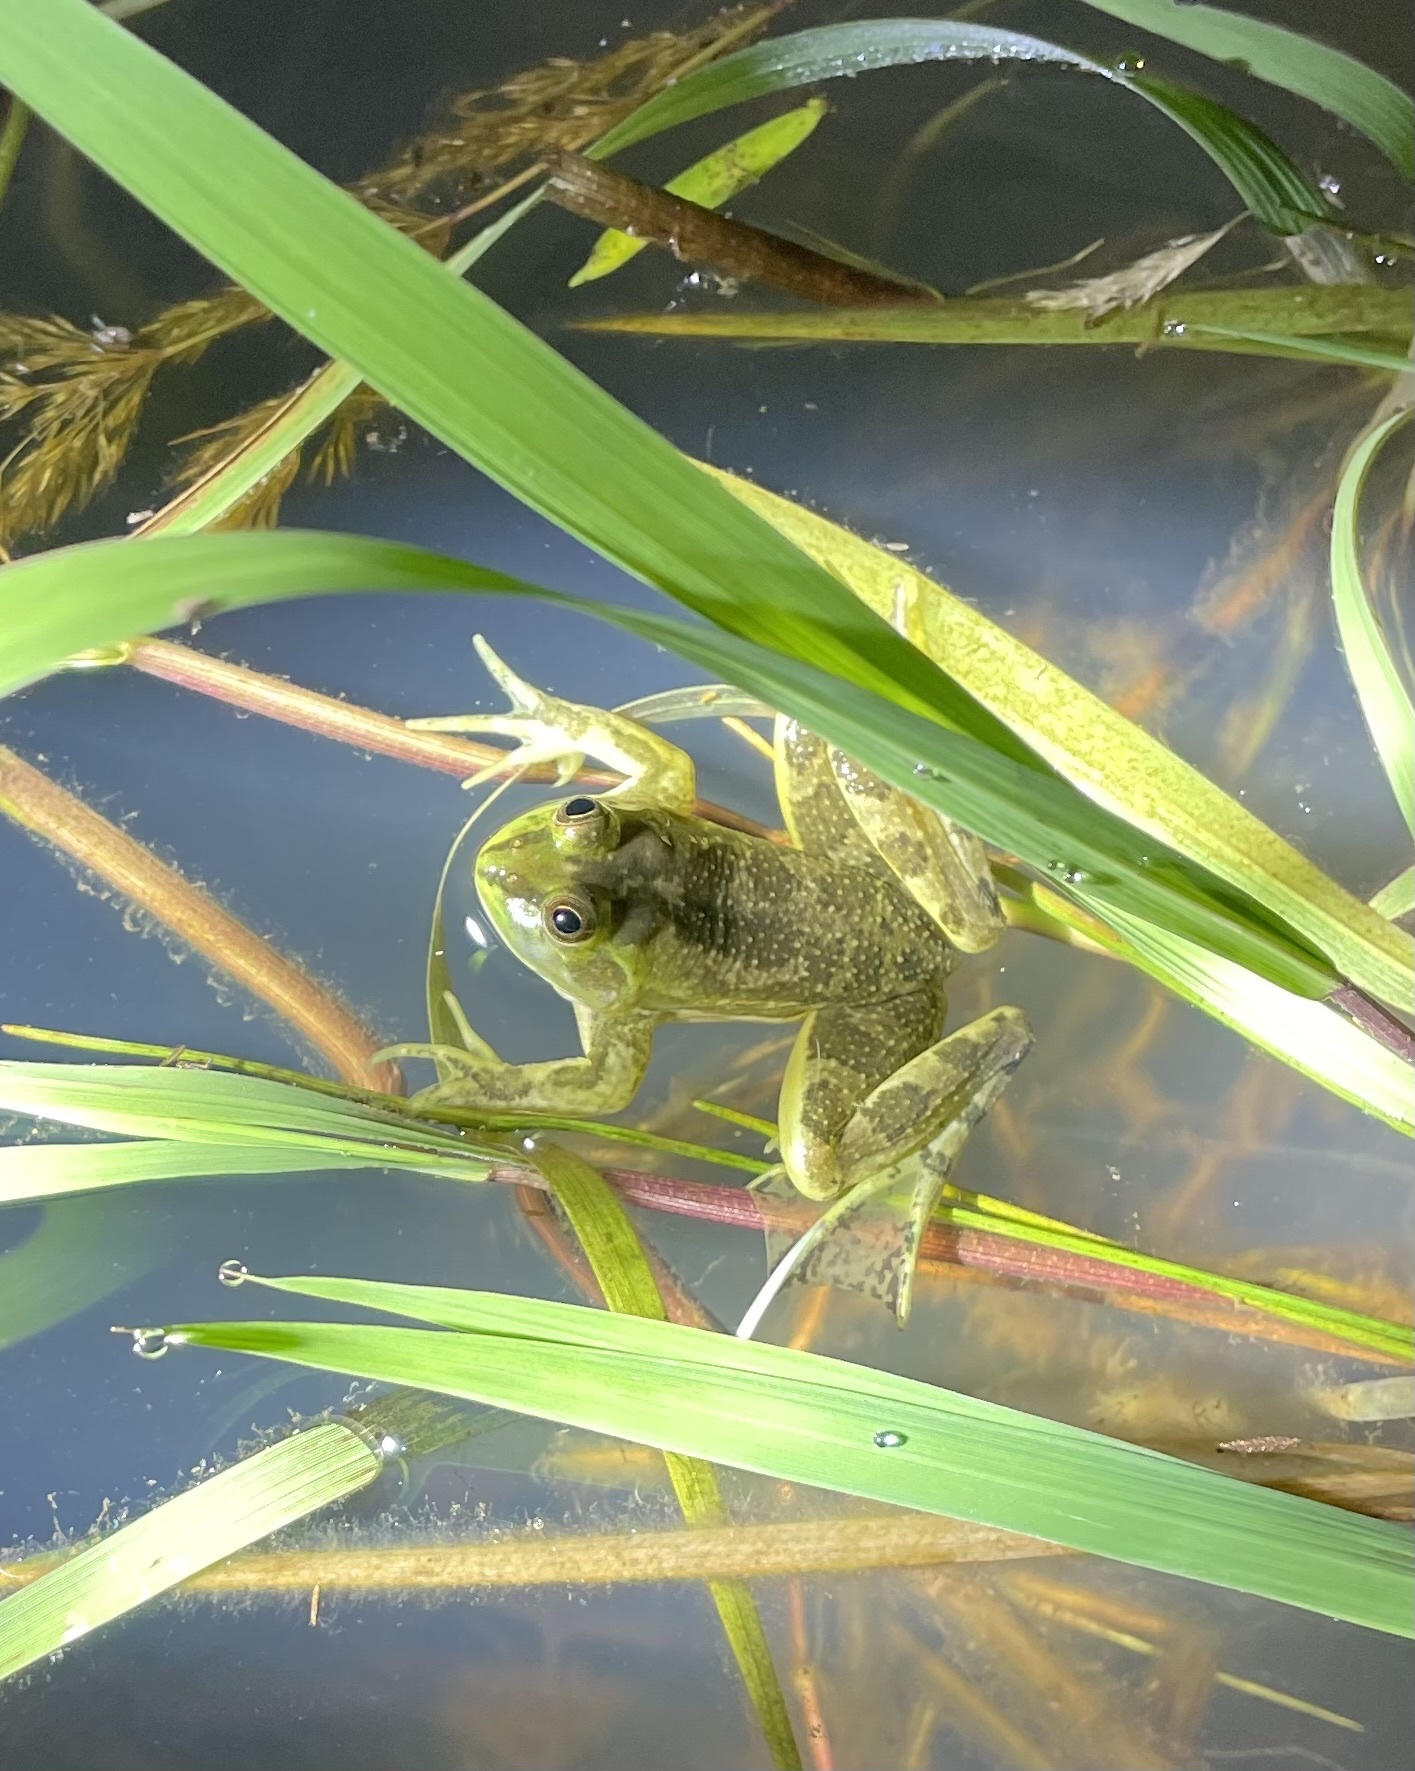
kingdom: Animalia
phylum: Chordata
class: Amphibia
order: Anura
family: Hylidae
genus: Pseudis
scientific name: Pseudis minuta
